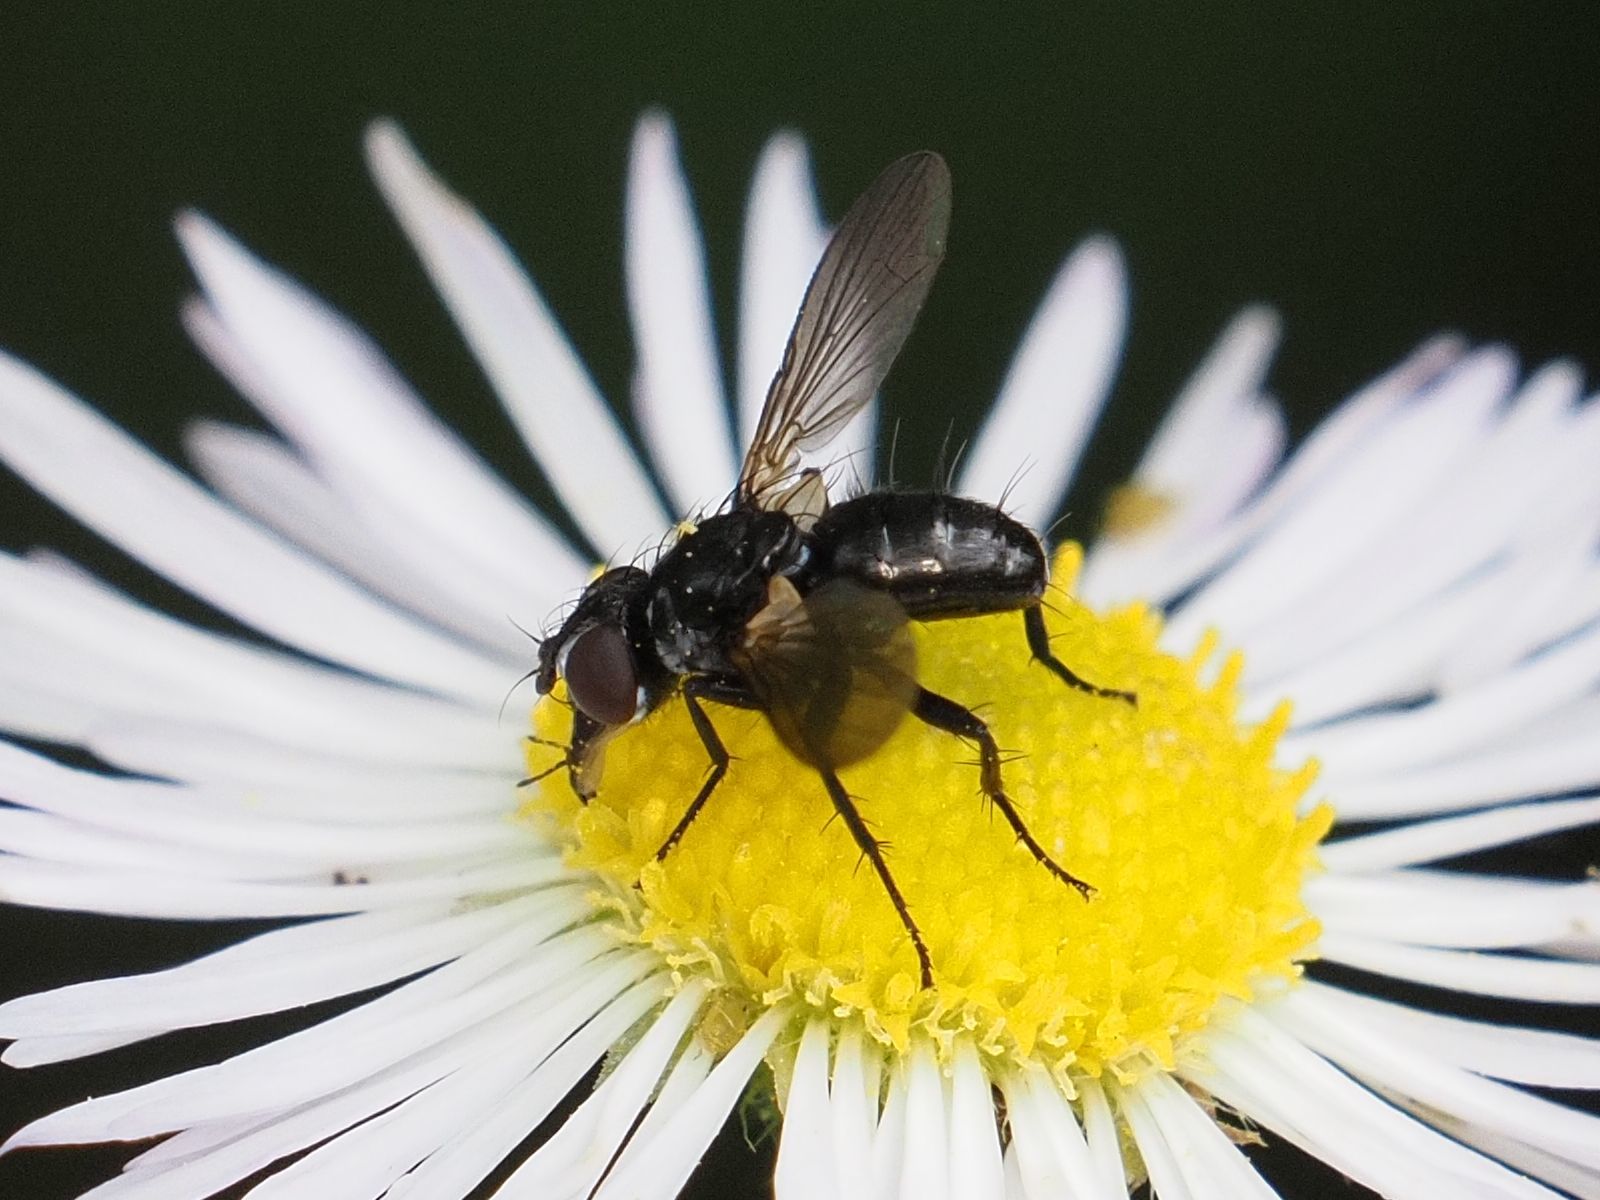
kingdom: Animalia
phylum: Arthropoda
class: Insecta
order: Diptera
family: Tachinidae
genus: Phania
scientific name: Phania funesta
